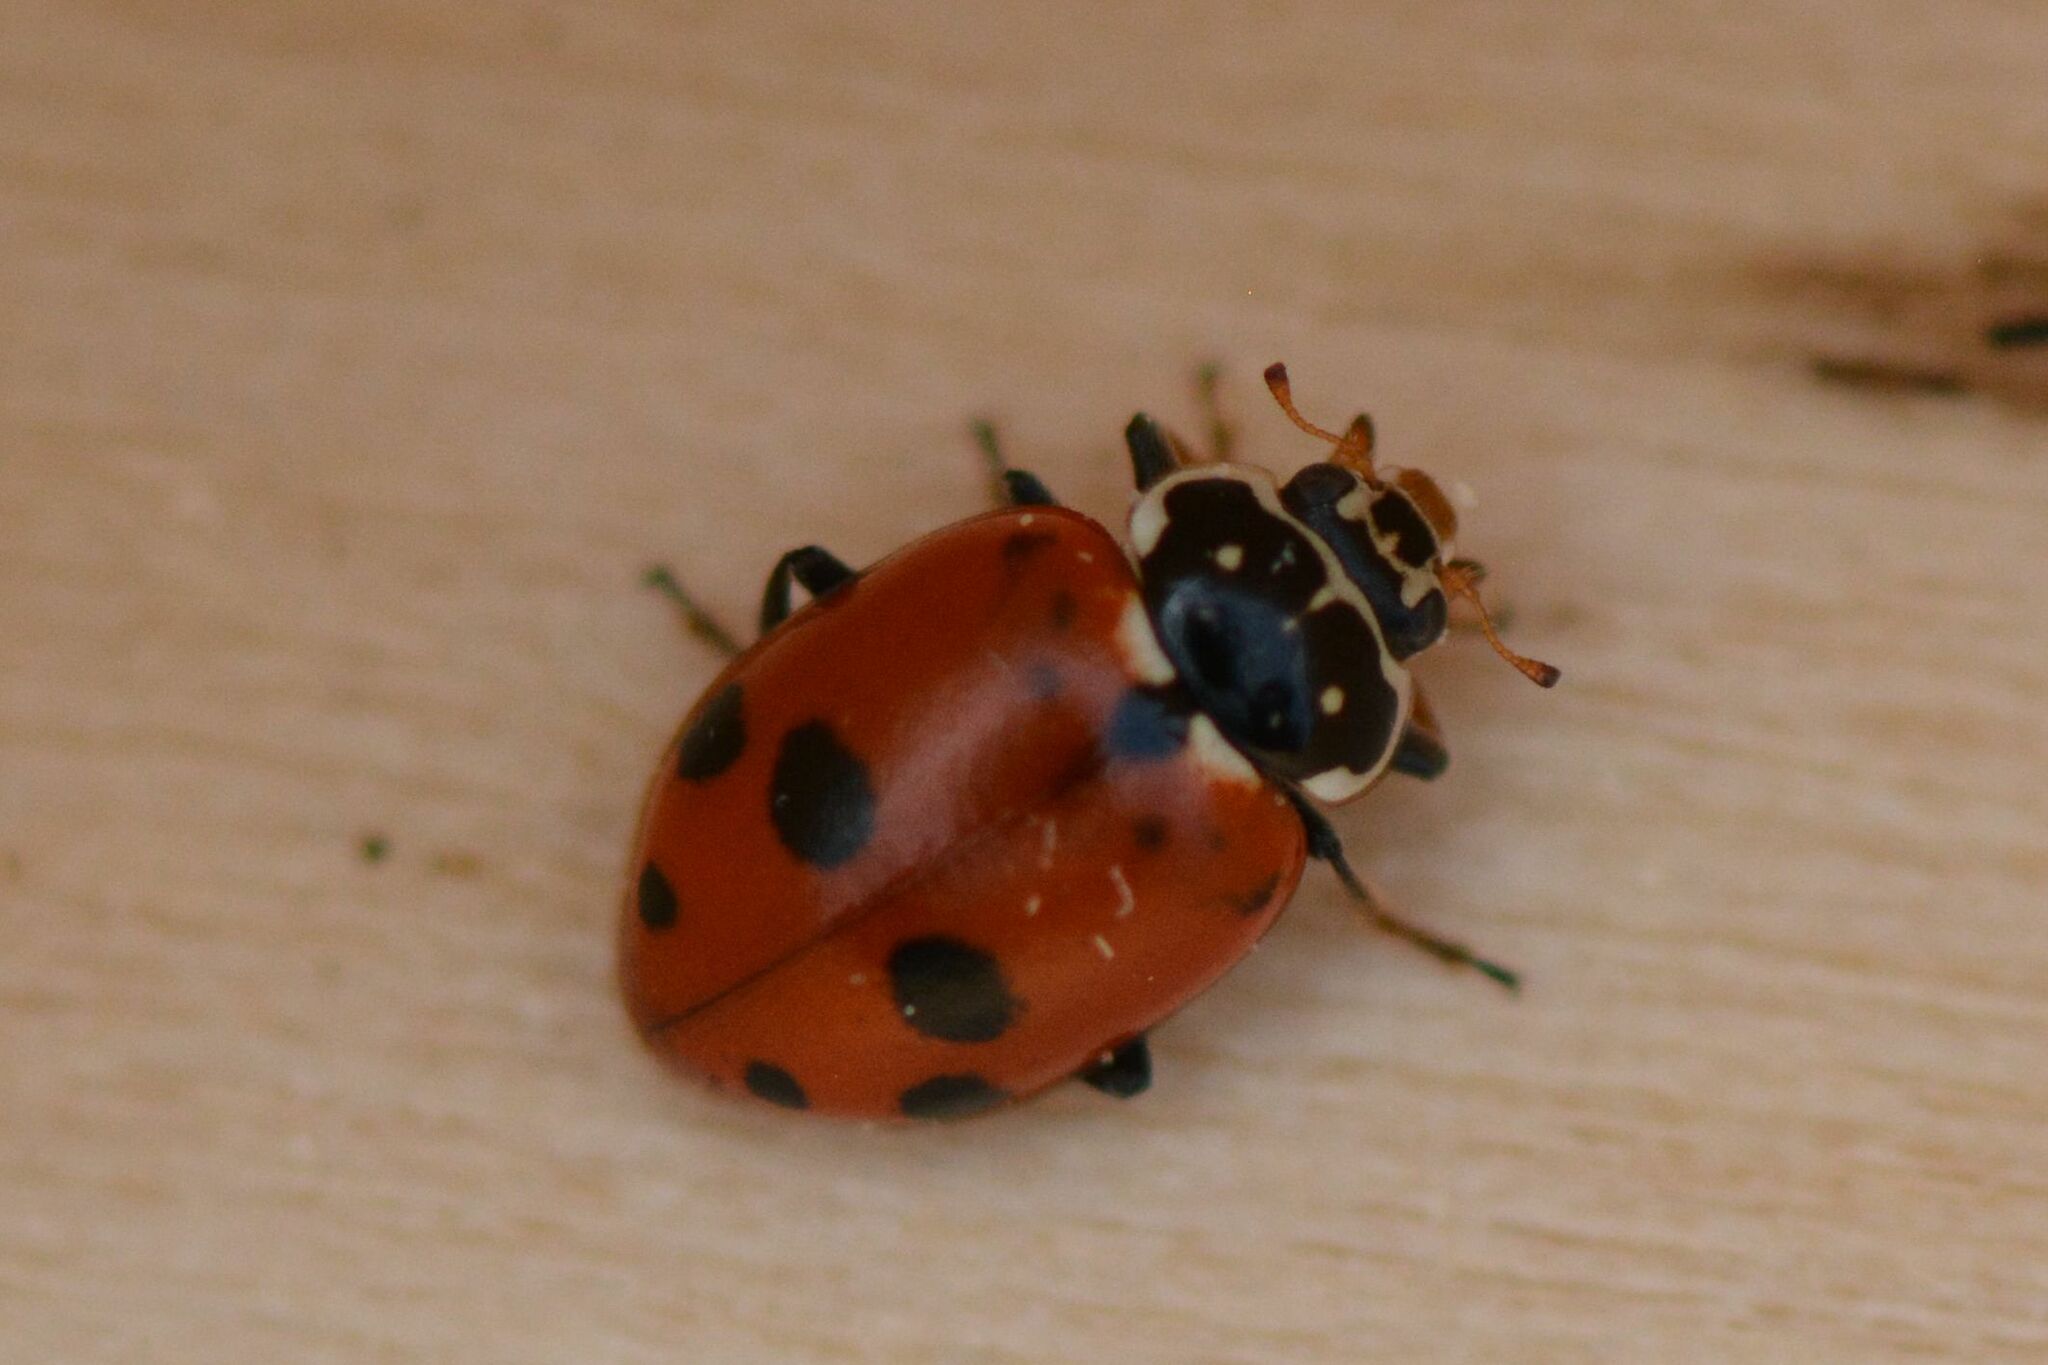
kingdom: Animalia
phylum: Arthropoda
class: Insecta
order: Coleoptera
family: Coccinellidae
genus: Hippodamia
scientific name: Hippodamia variegata
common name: Ladybird beetle
